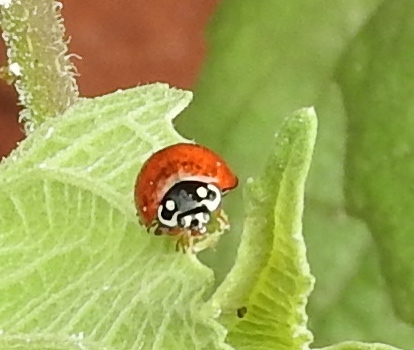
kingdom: Animalia
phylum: Arthropoda
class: Insecta
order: Coleoptera
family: Coccinellidae
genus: Cycloneda
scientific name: Cycloneda sanguinea
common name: Ladybird beetle
